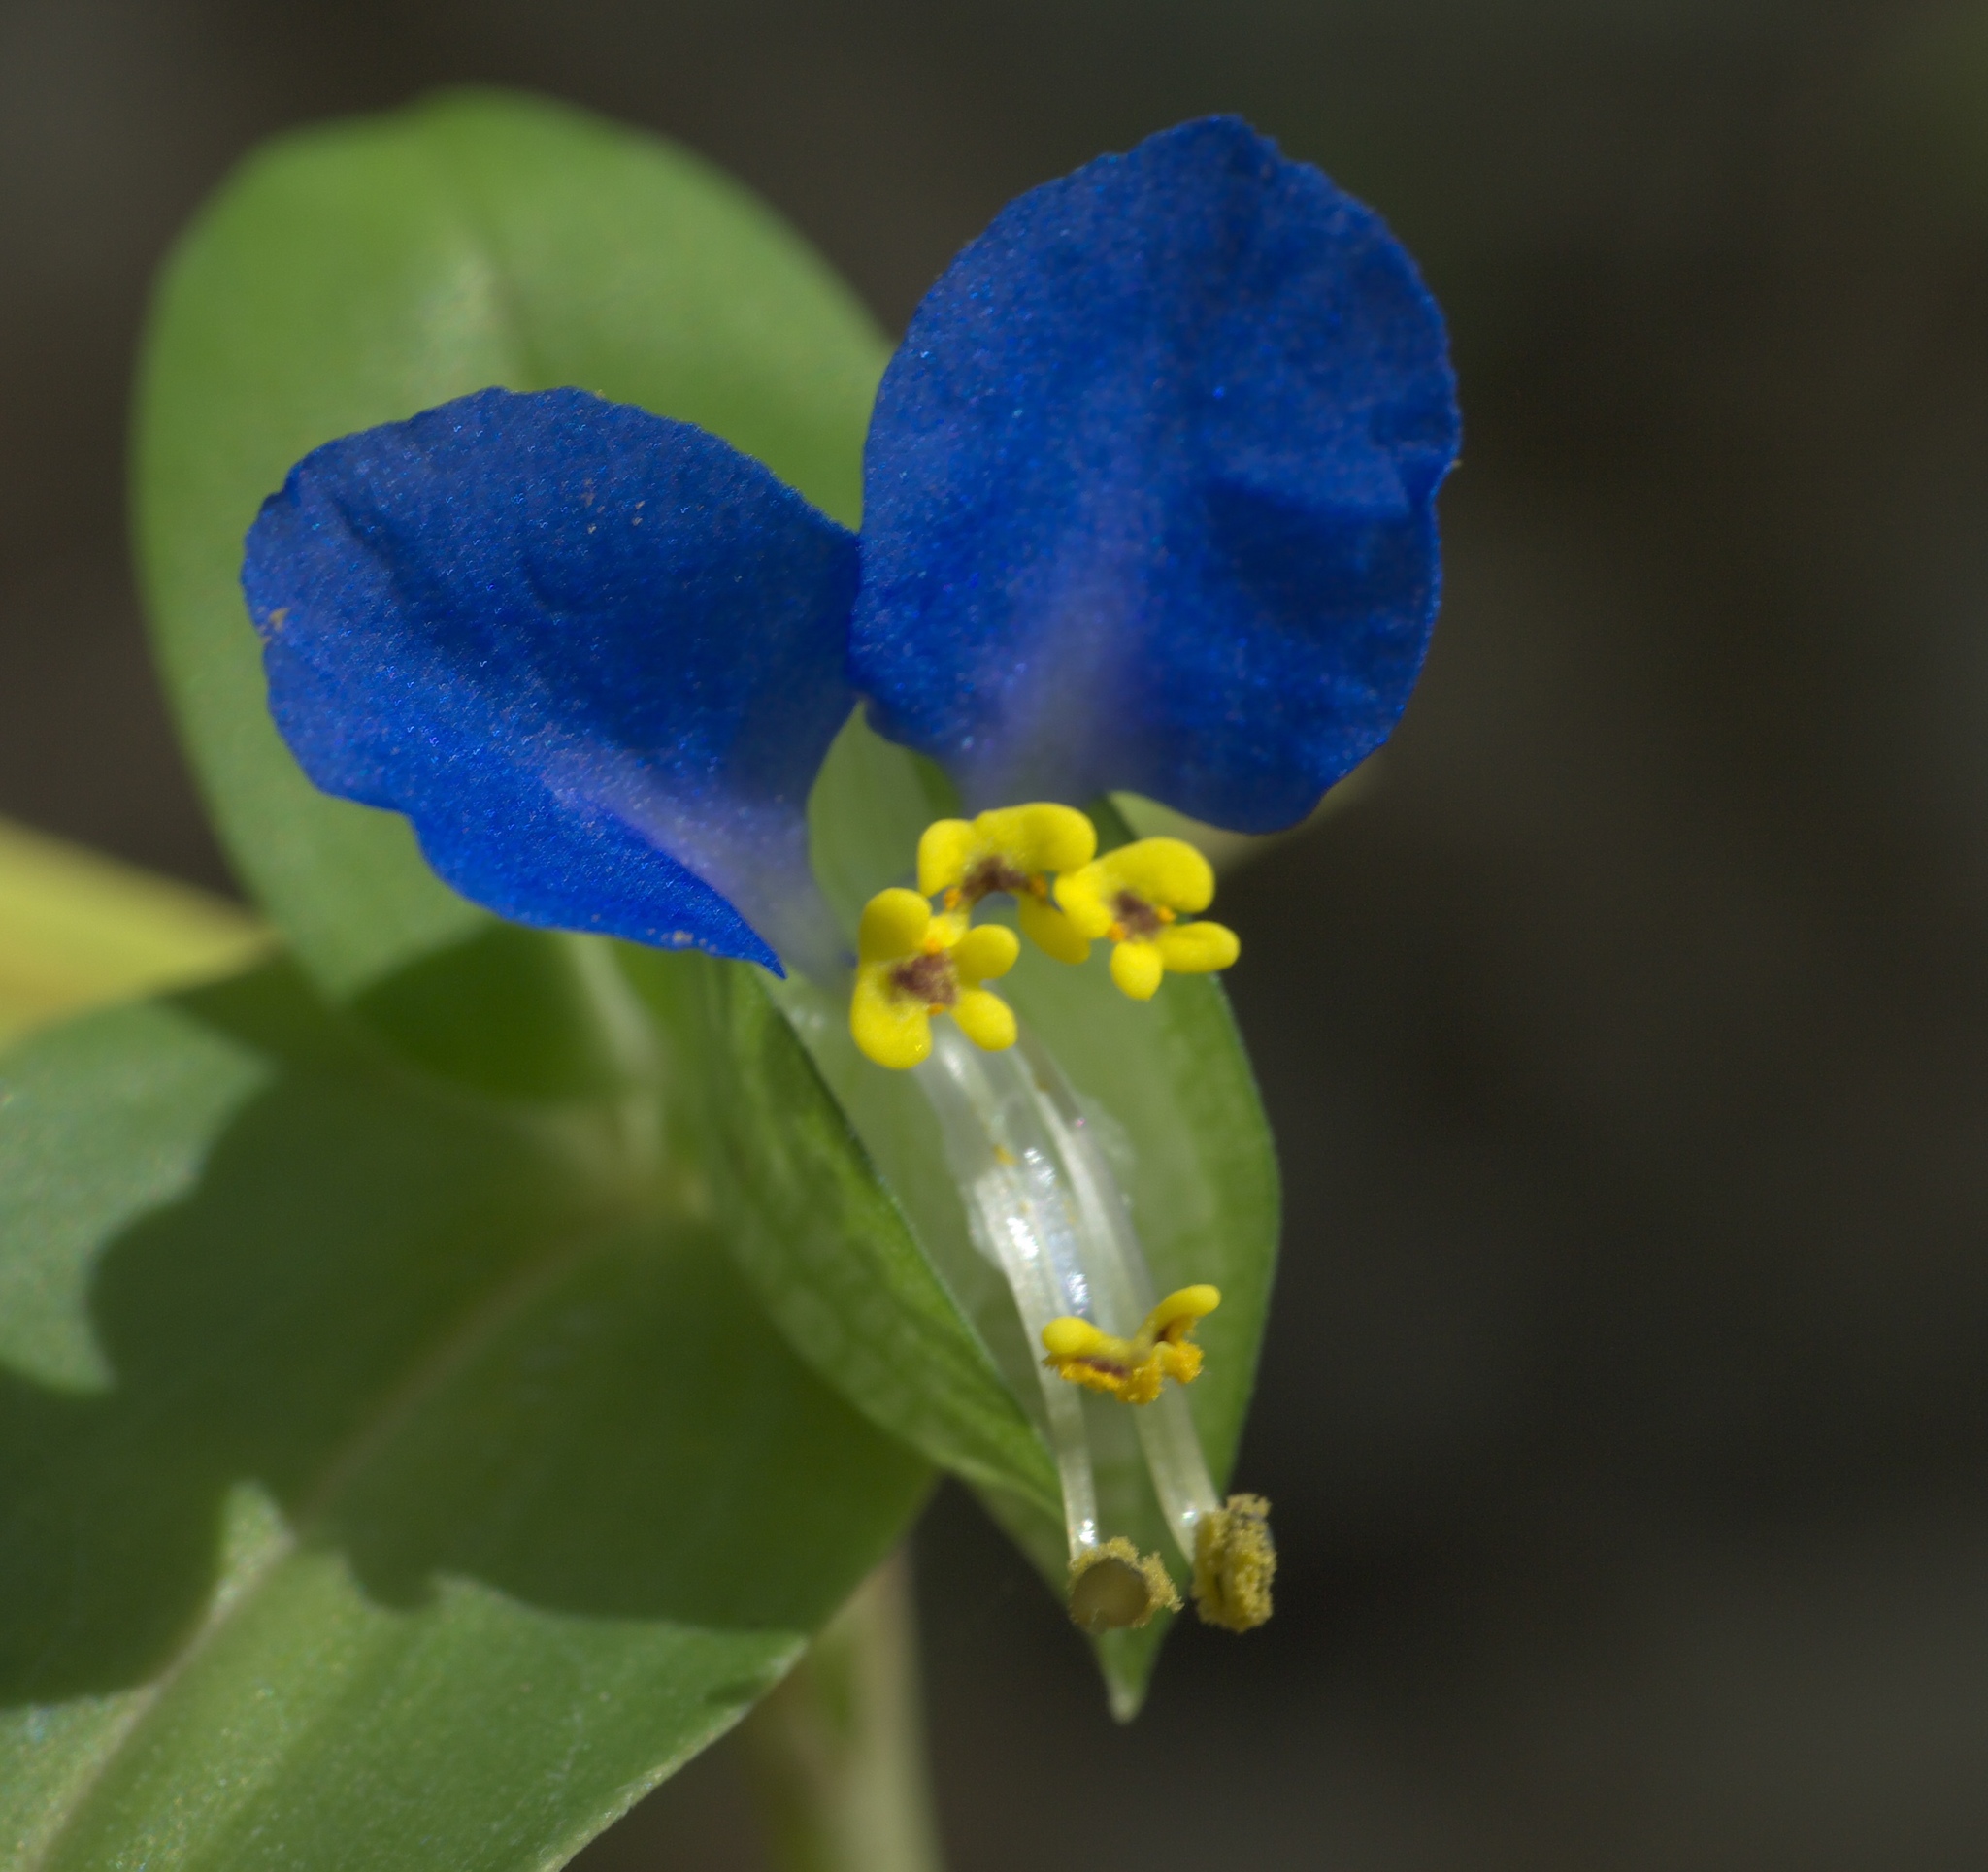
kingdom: Plantae
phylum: Tracheophyta
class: Liliopsida
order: Commelinales
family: Commelinaceae
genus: Commelina
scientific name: Commelina communis
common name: Asiatic dayflower
